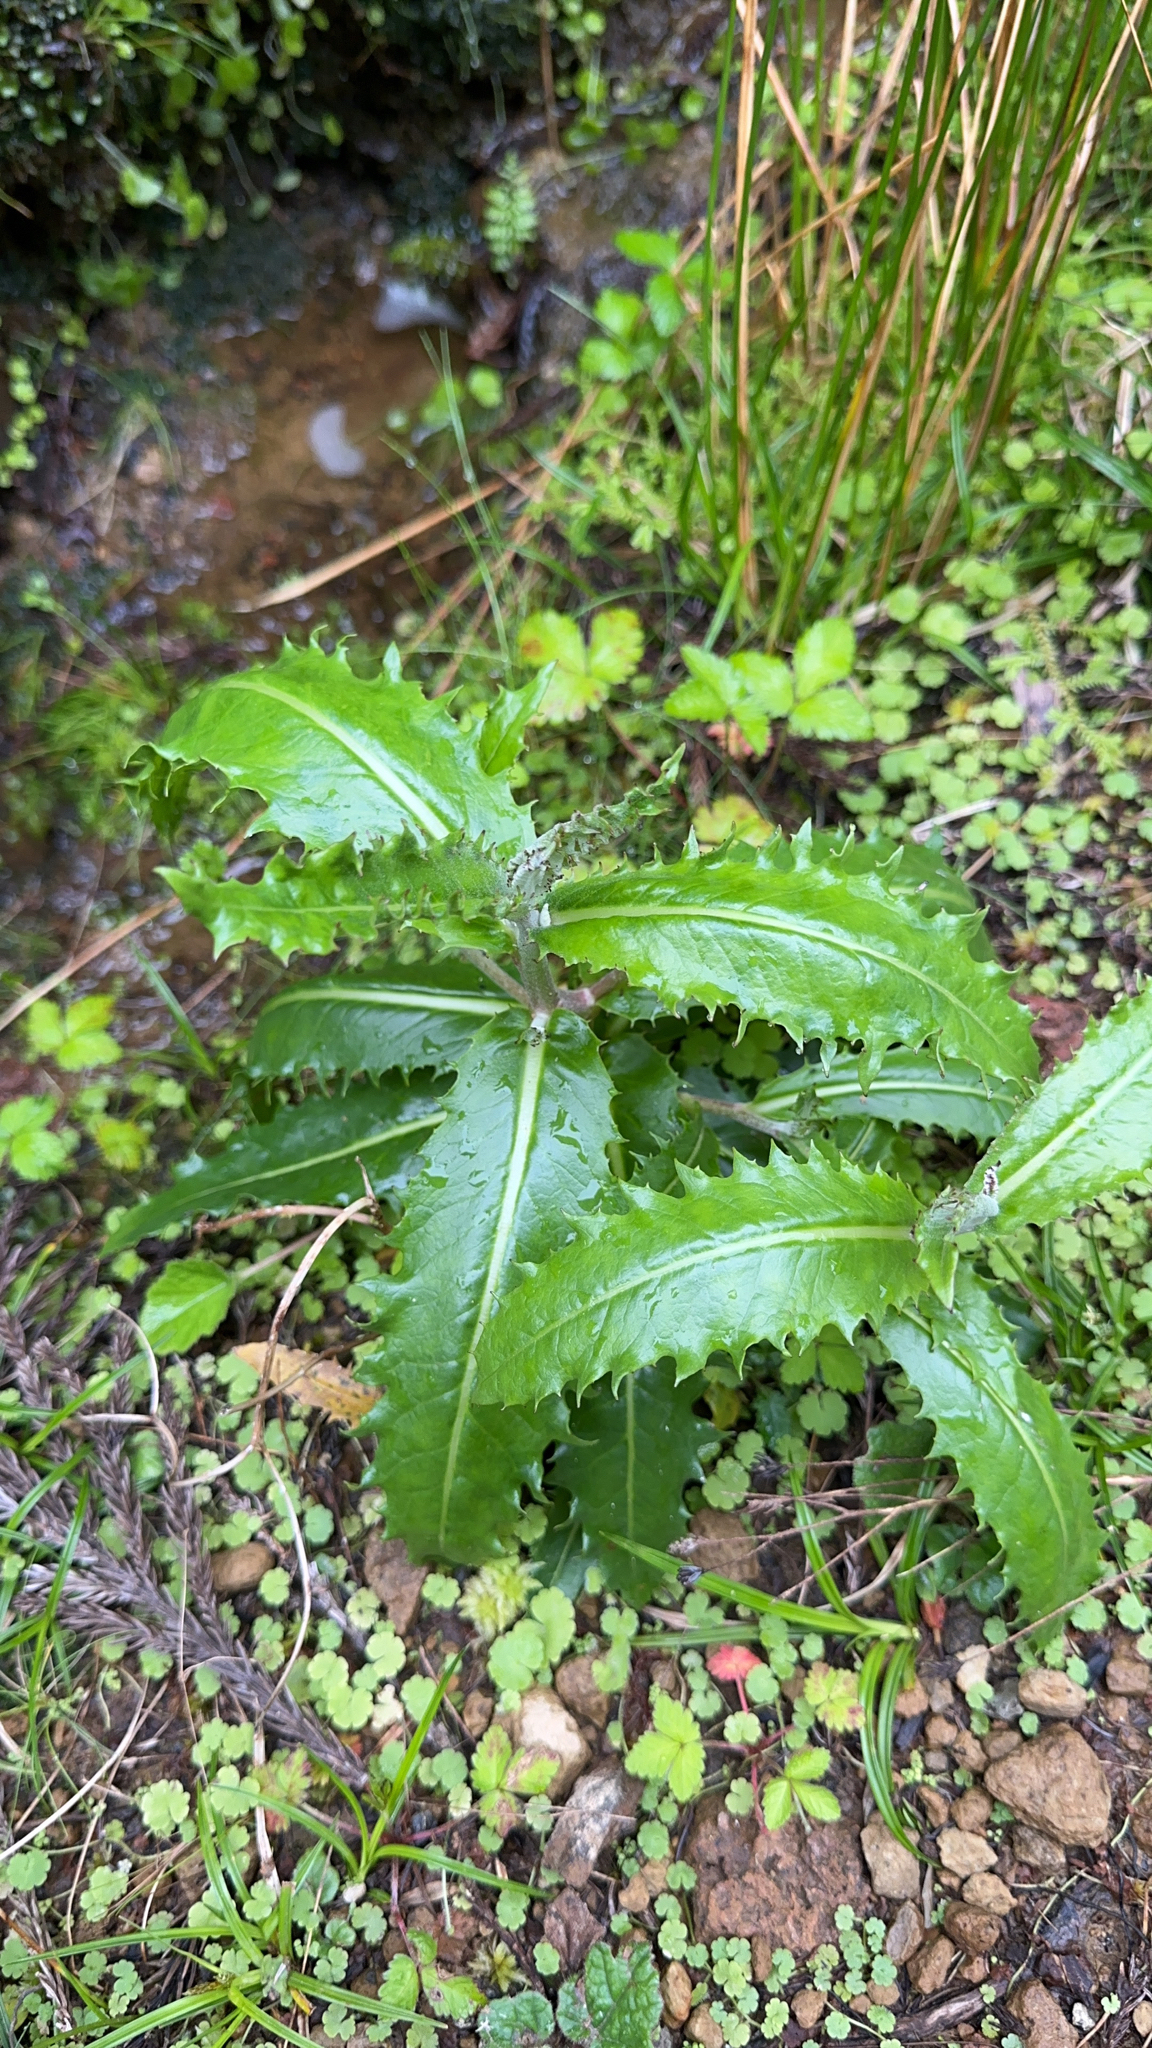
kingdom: Plantae
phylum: Tracheophyta
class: Magnoliopsida
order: Asterales
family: Asteraceae
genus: Tolpis
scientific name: Tolpis azorica
